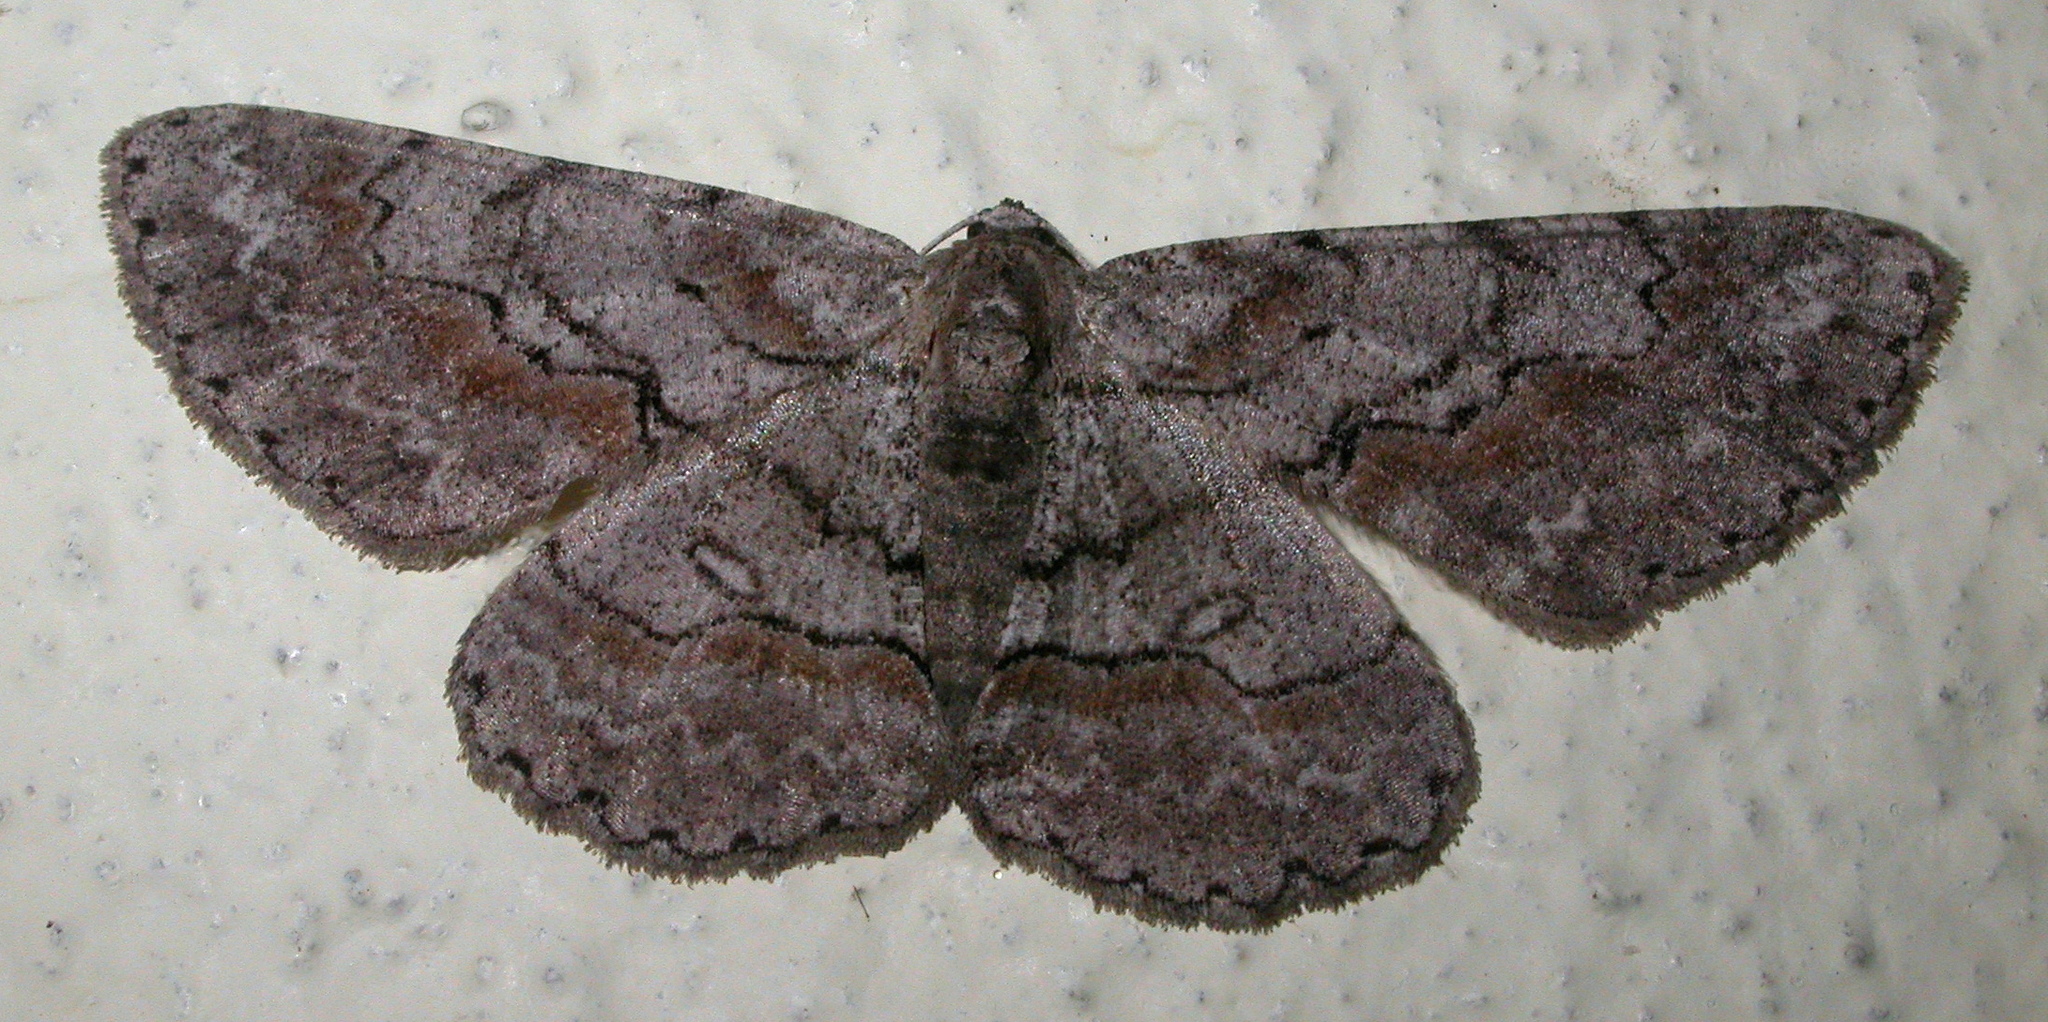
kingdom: Animalia
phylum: Arthropoda
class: Insecta
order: Lepidoptera
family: Geometridae
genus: Iridopsis
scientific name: Iridopsis defectaria
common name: Brown-shaded gray
